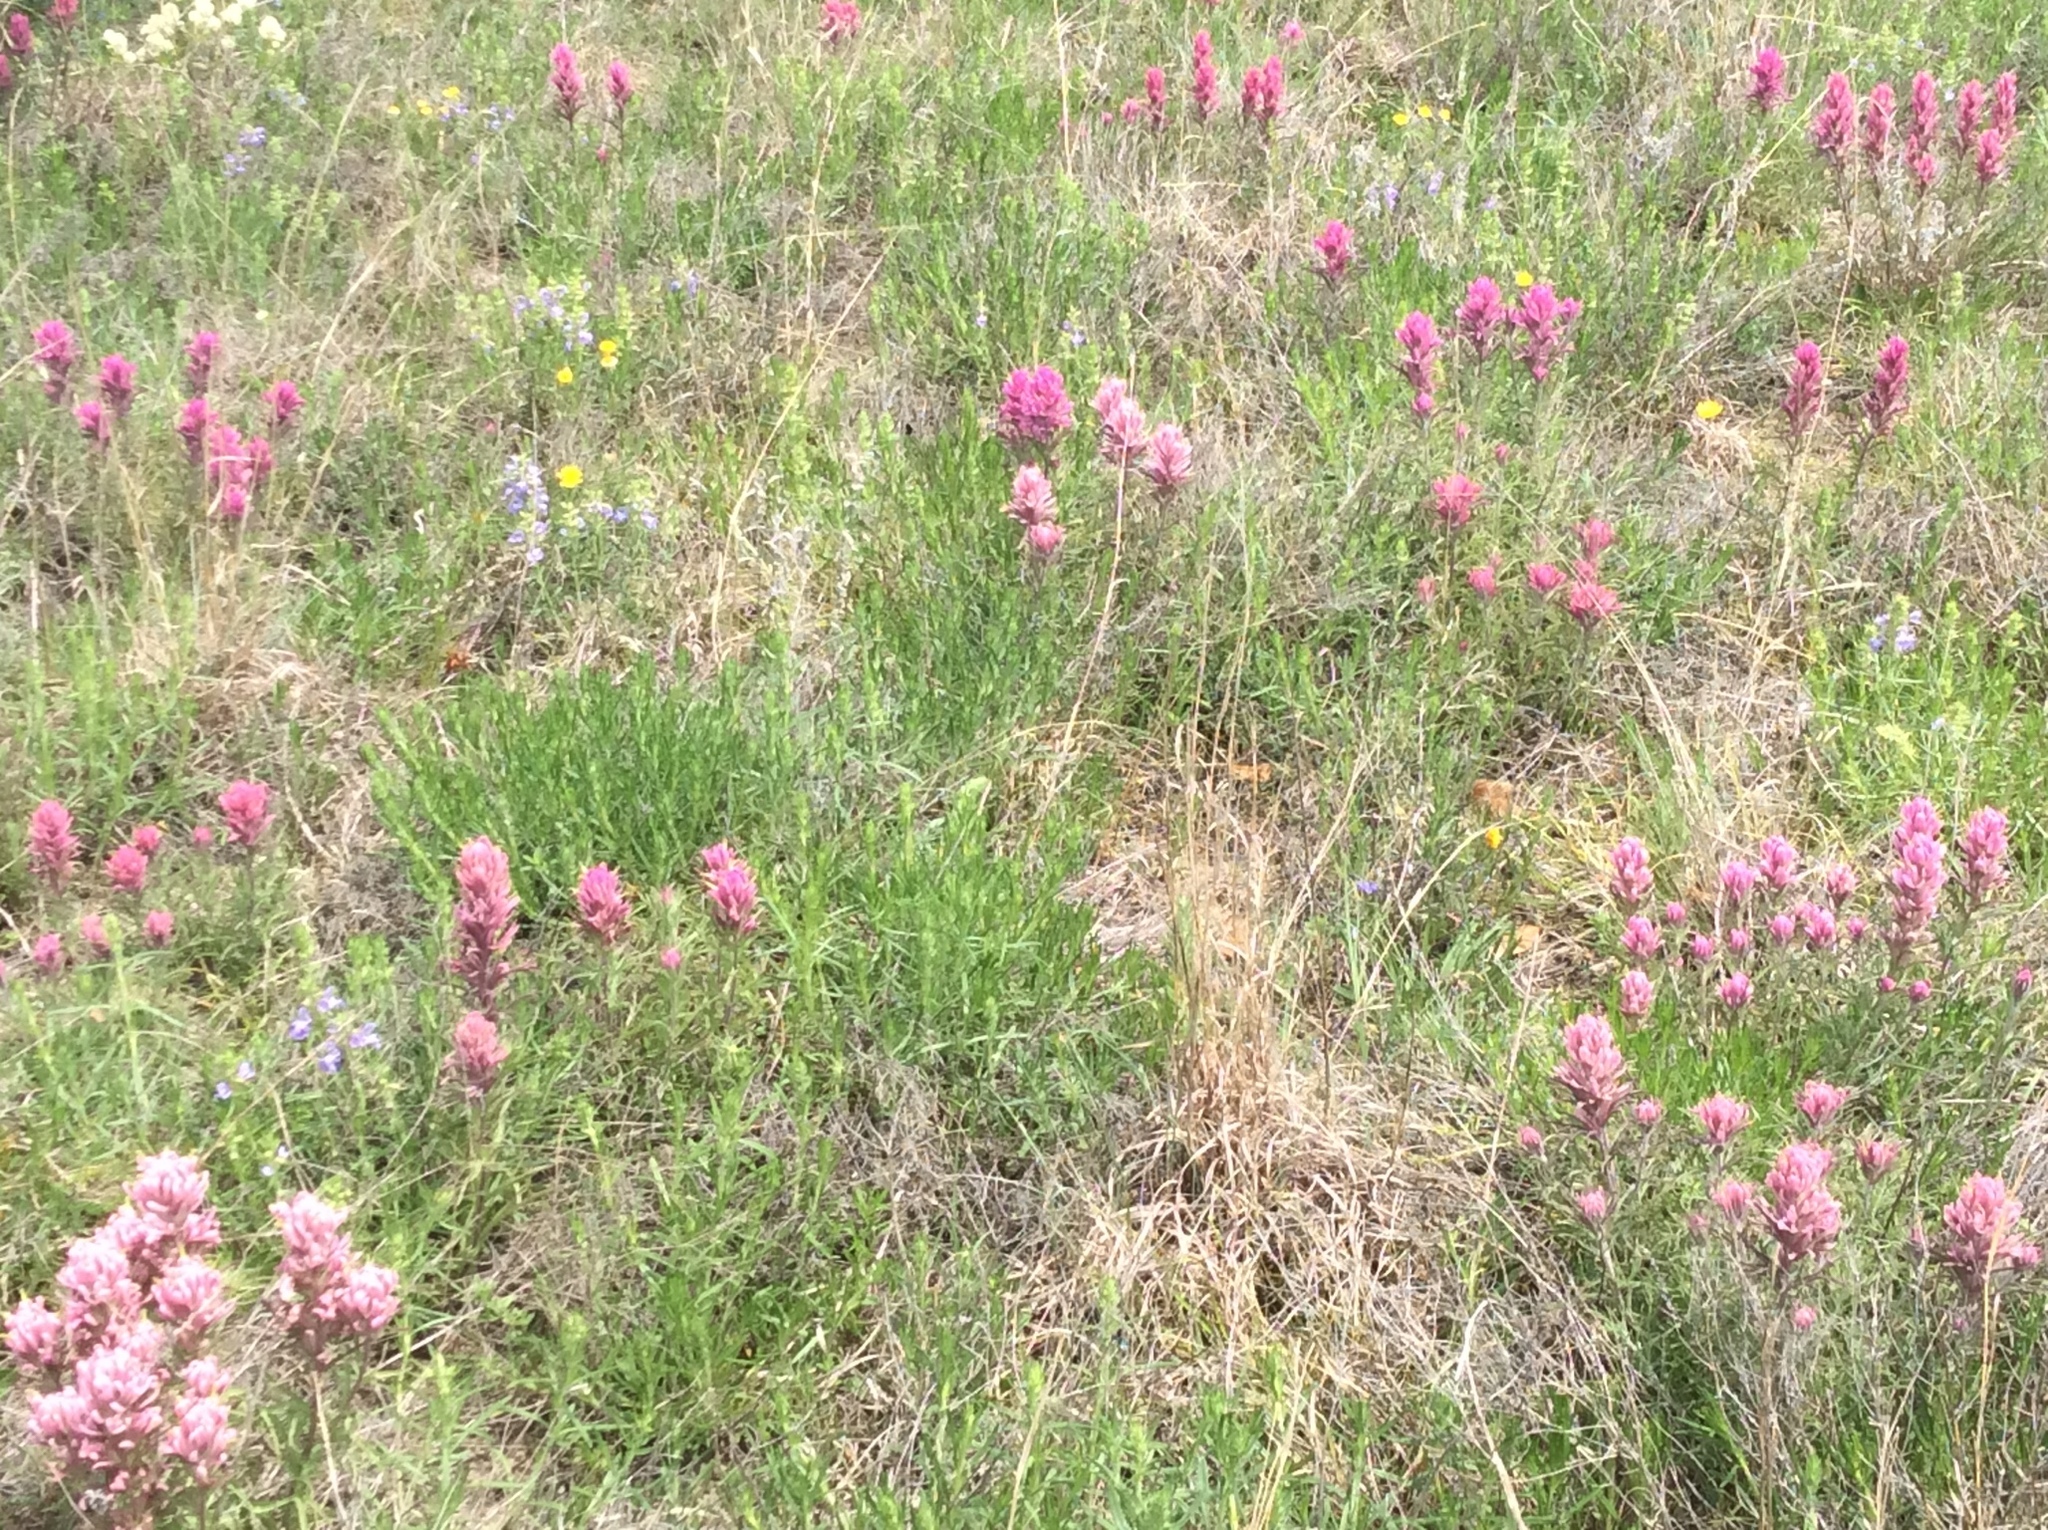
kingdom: Plantae
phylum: Tracheophyta
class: Magnoliopsida
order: Lamiales
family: Orobanchaceae
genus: Castilleja
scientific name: Castilleja purpurea
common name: Plains paintbrush
